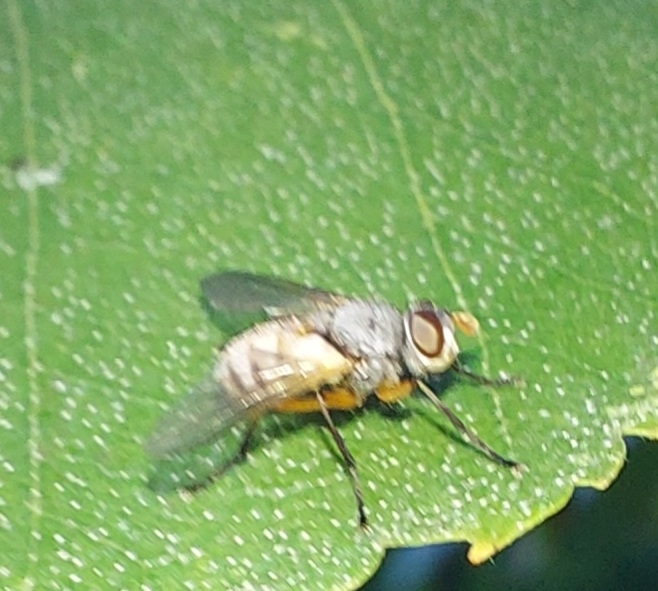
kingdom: Animalia
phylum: Arthropoda
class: Insecta
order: Diptera
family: Tachinidae
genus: Subclytia
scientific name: Subclytia rotundiventris
